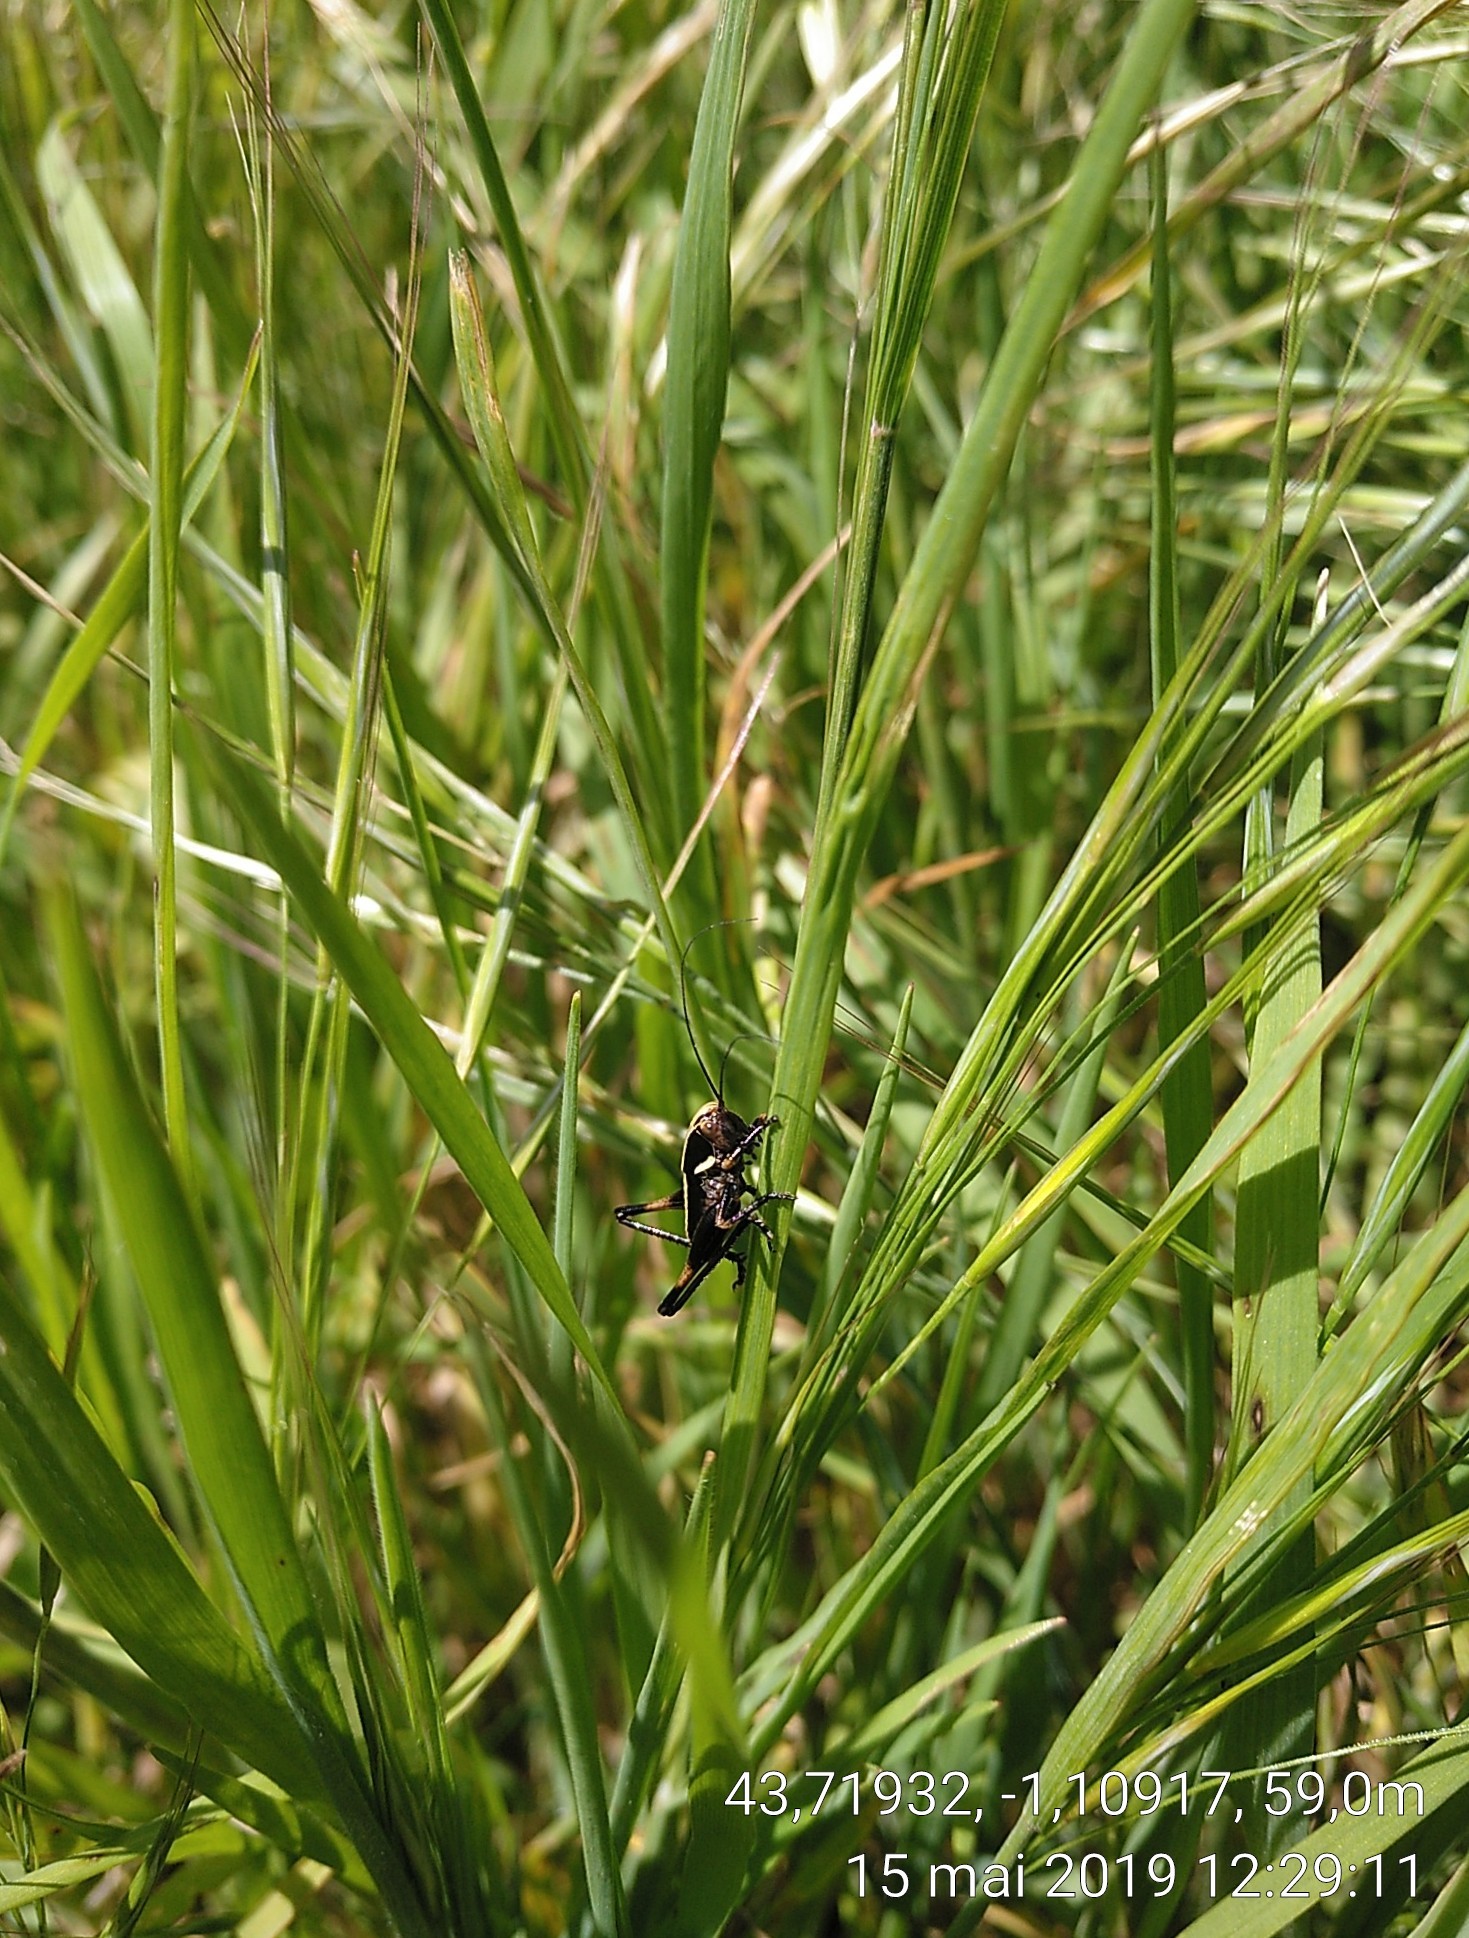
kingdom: Animalia
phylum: Arthropoda
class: Insecta
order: Orthoptera
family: Tettigoniidae
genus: Zeuneriana
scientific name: Zeuneriana abbreviata
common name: Basque bush-cricket
